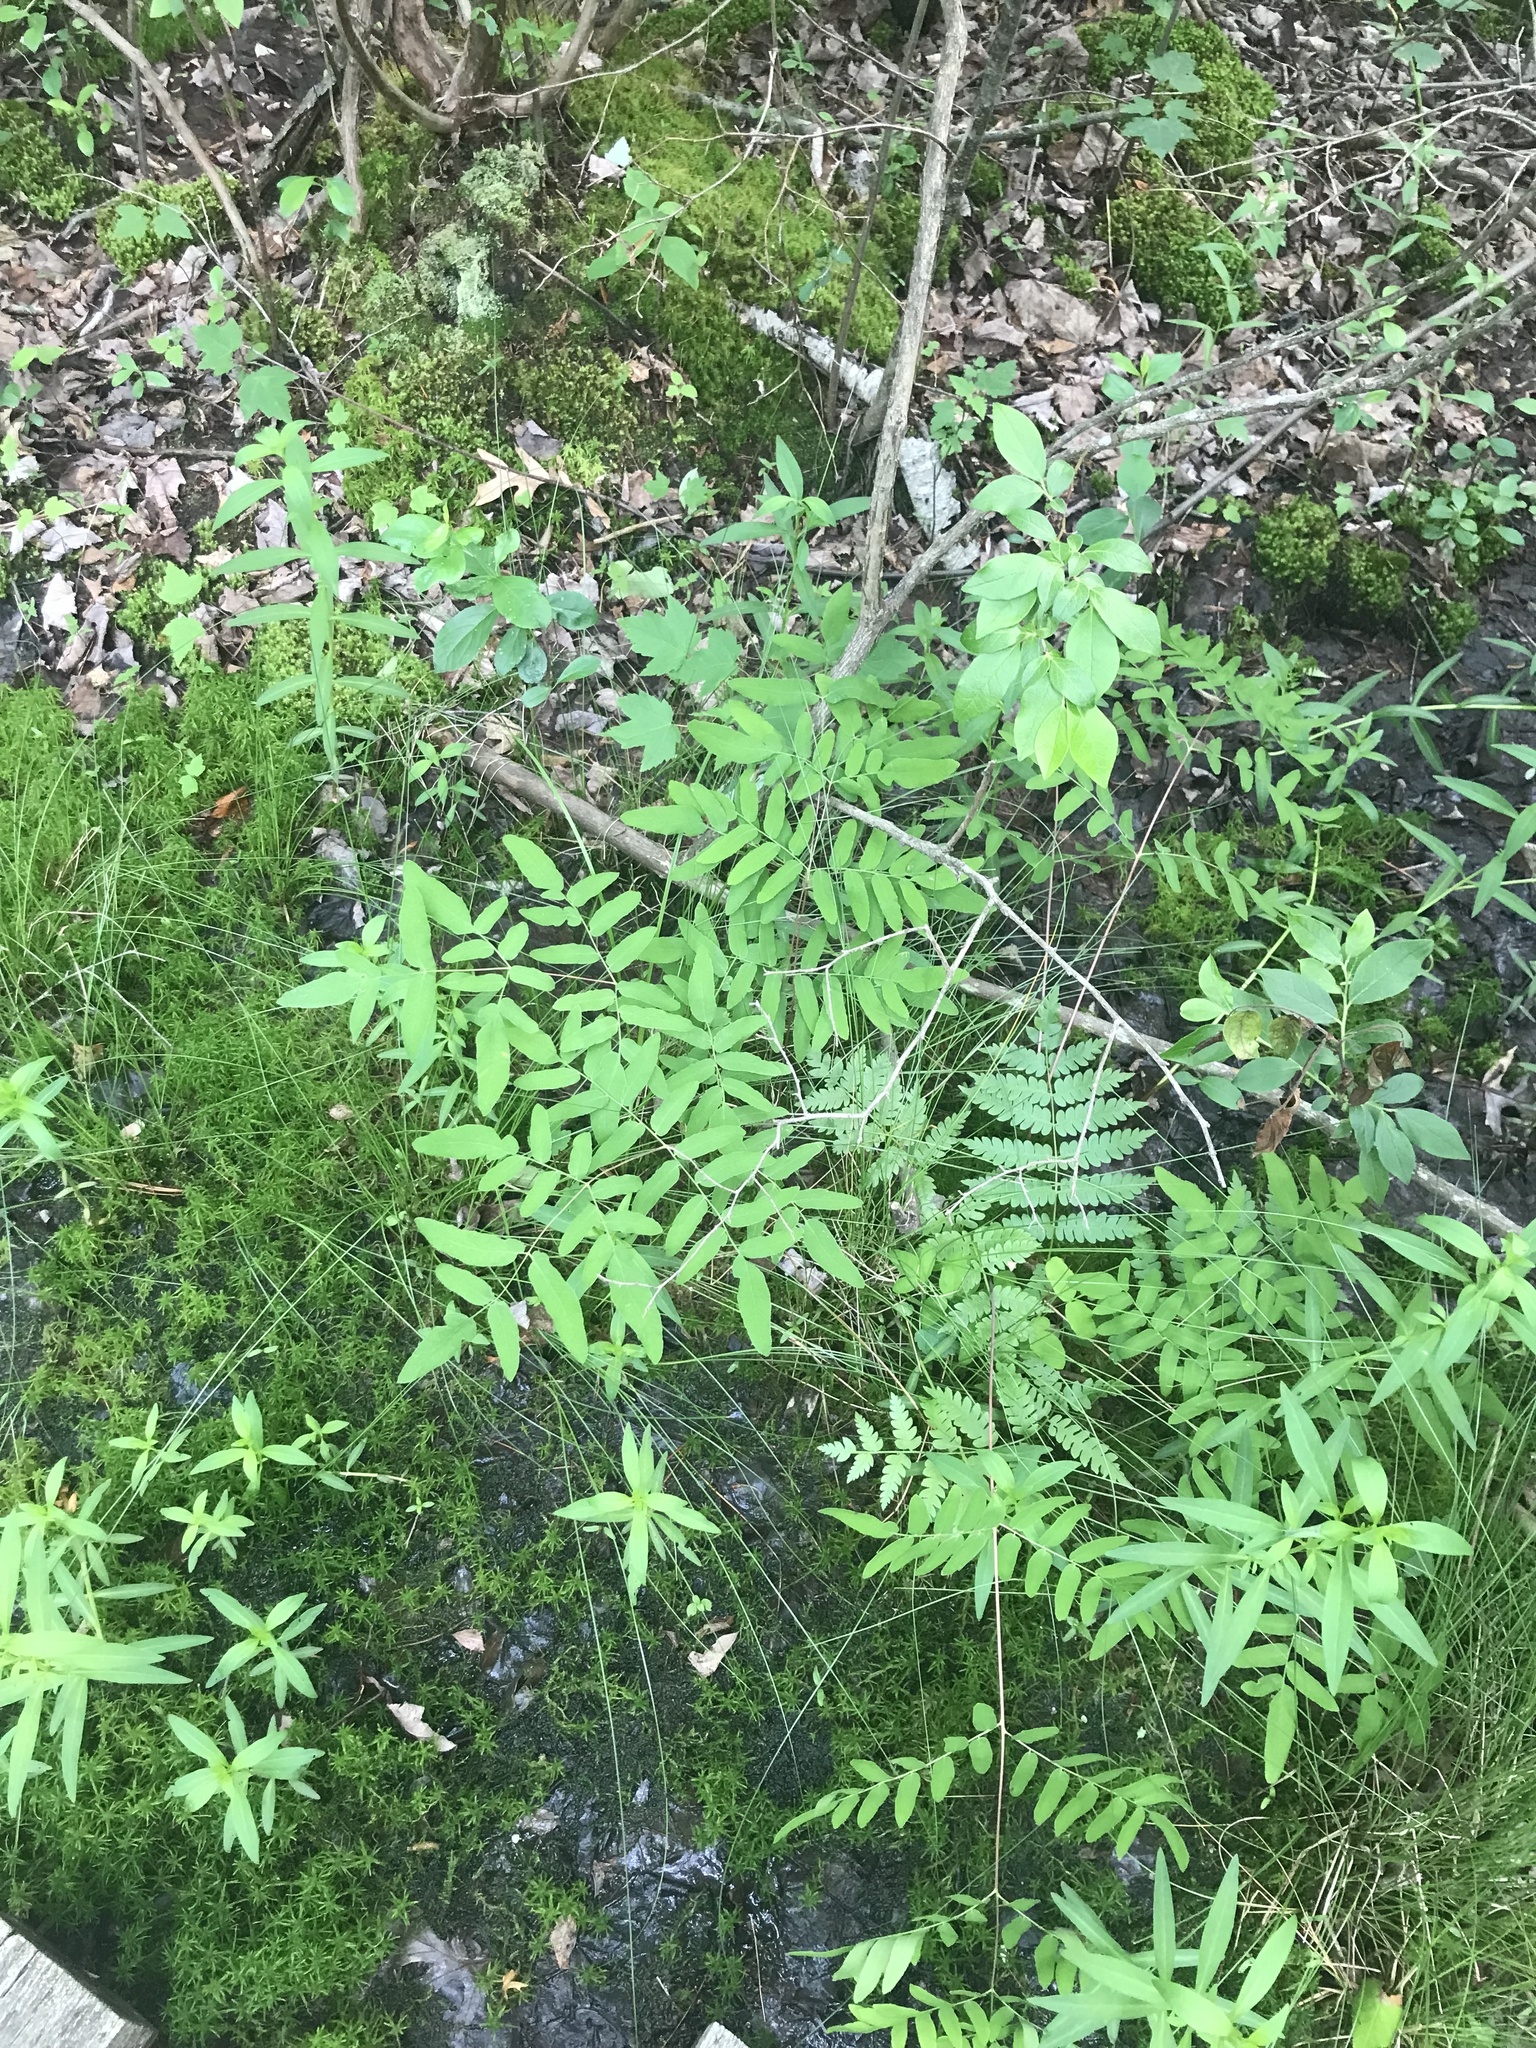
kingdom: Plantae
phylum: Tracheophyta
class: Polypodiopsida
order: Osmundales
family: Osmundaceae
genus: Osmunda
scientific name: Osmunda spectabilis
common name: American royal fern
